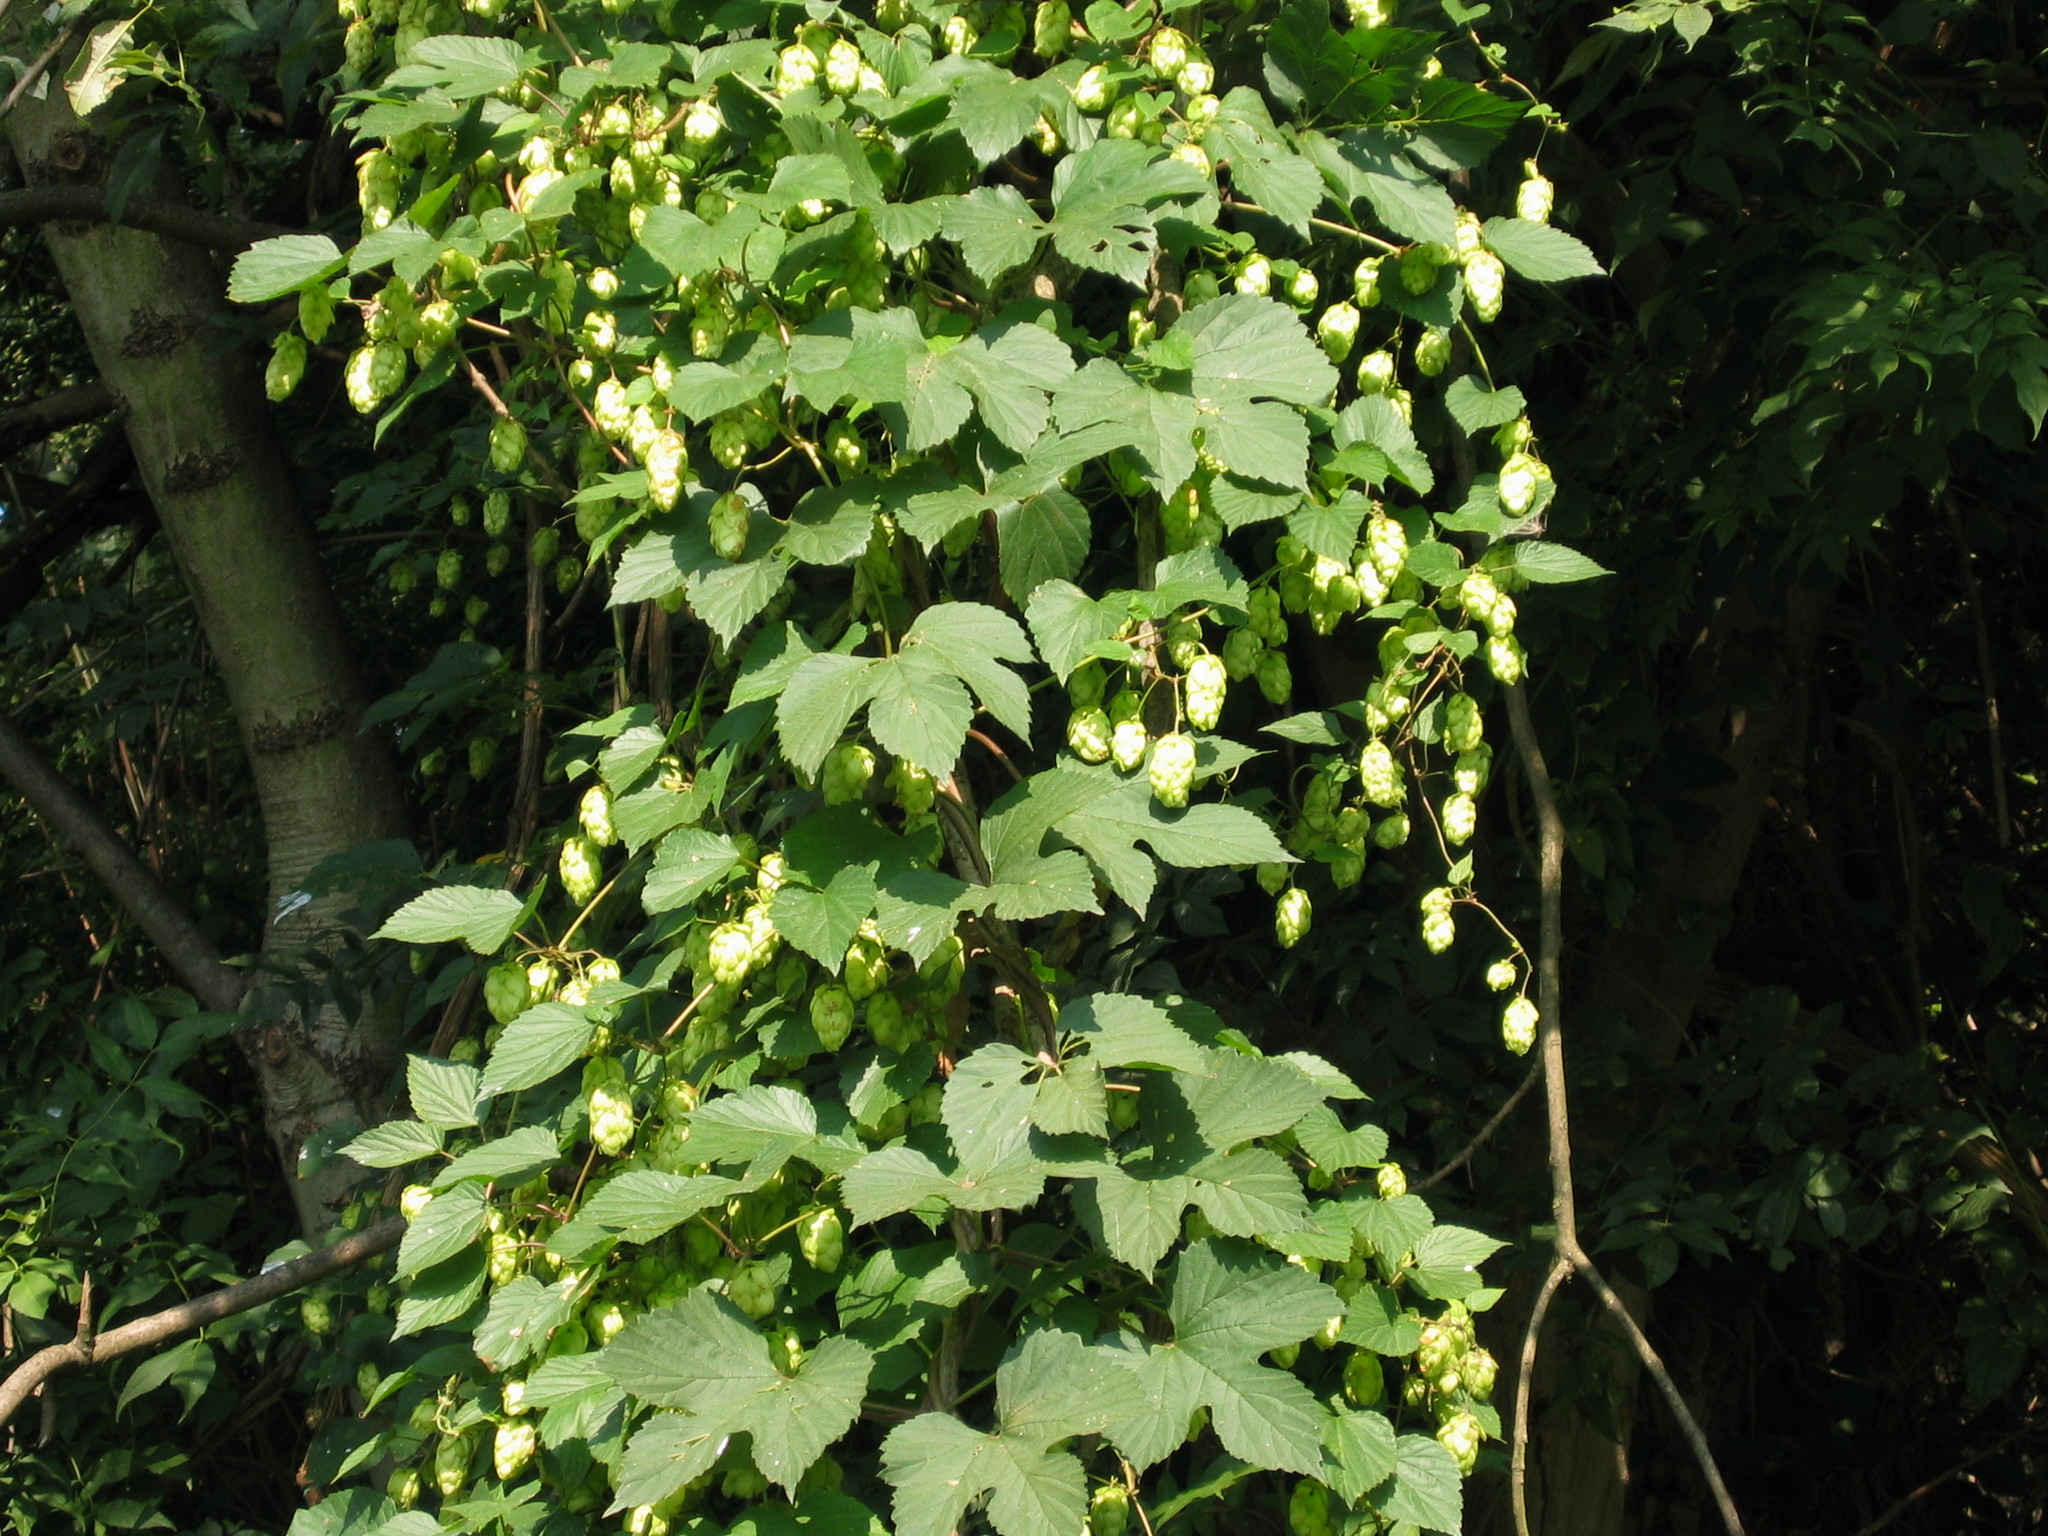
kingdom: Plantae
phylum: Tracheophyta
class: Magnoliopsida
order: Rosales
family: Cannabaceae
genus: Humulus
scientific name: Humulus lupulus
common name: Hop
